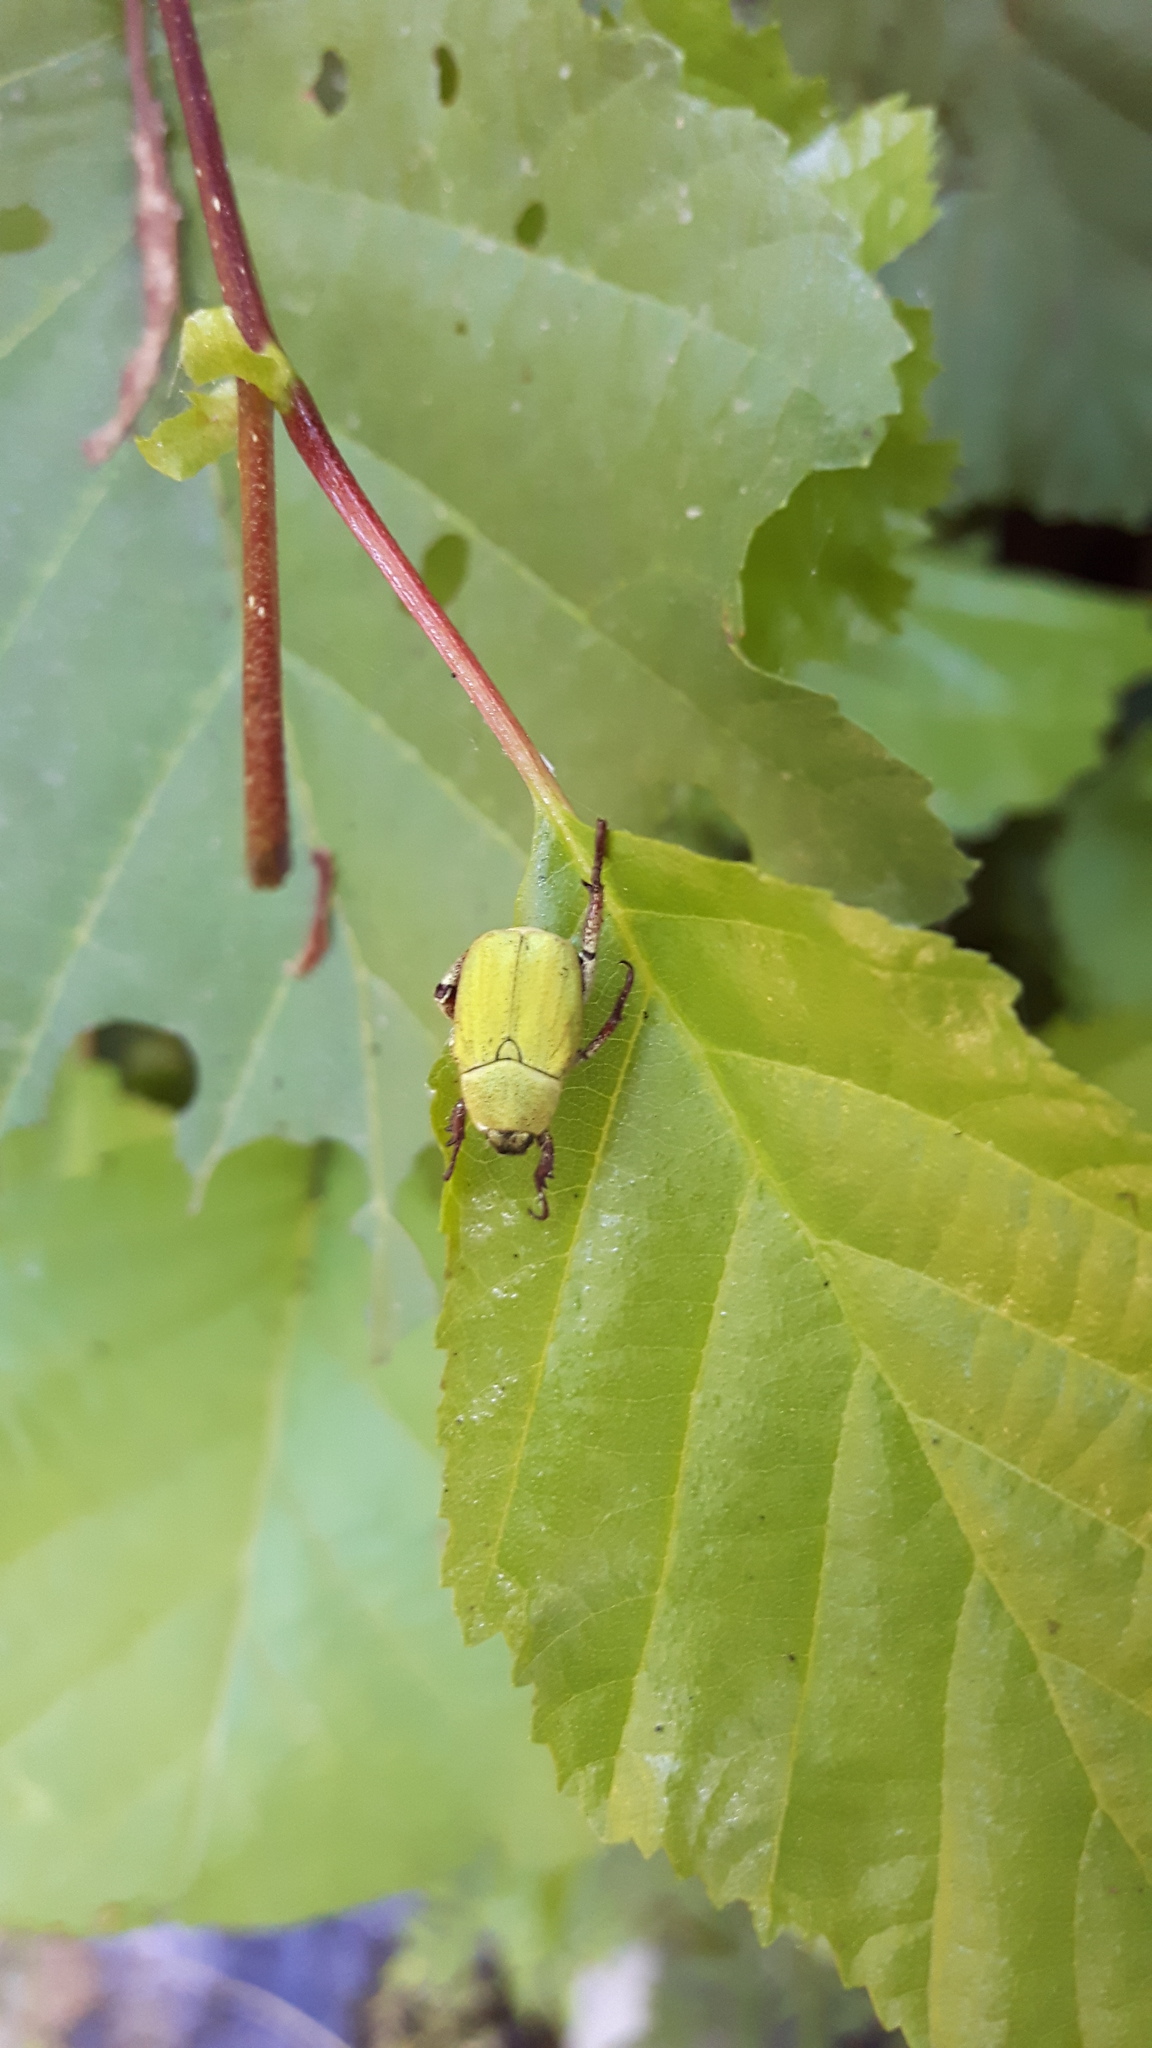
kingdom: Animalia
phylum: Arthropoda
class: Insecta
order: Coleoptera
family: Scarabaeidae
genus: Hoplia
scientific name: Hoplia pubicollis
